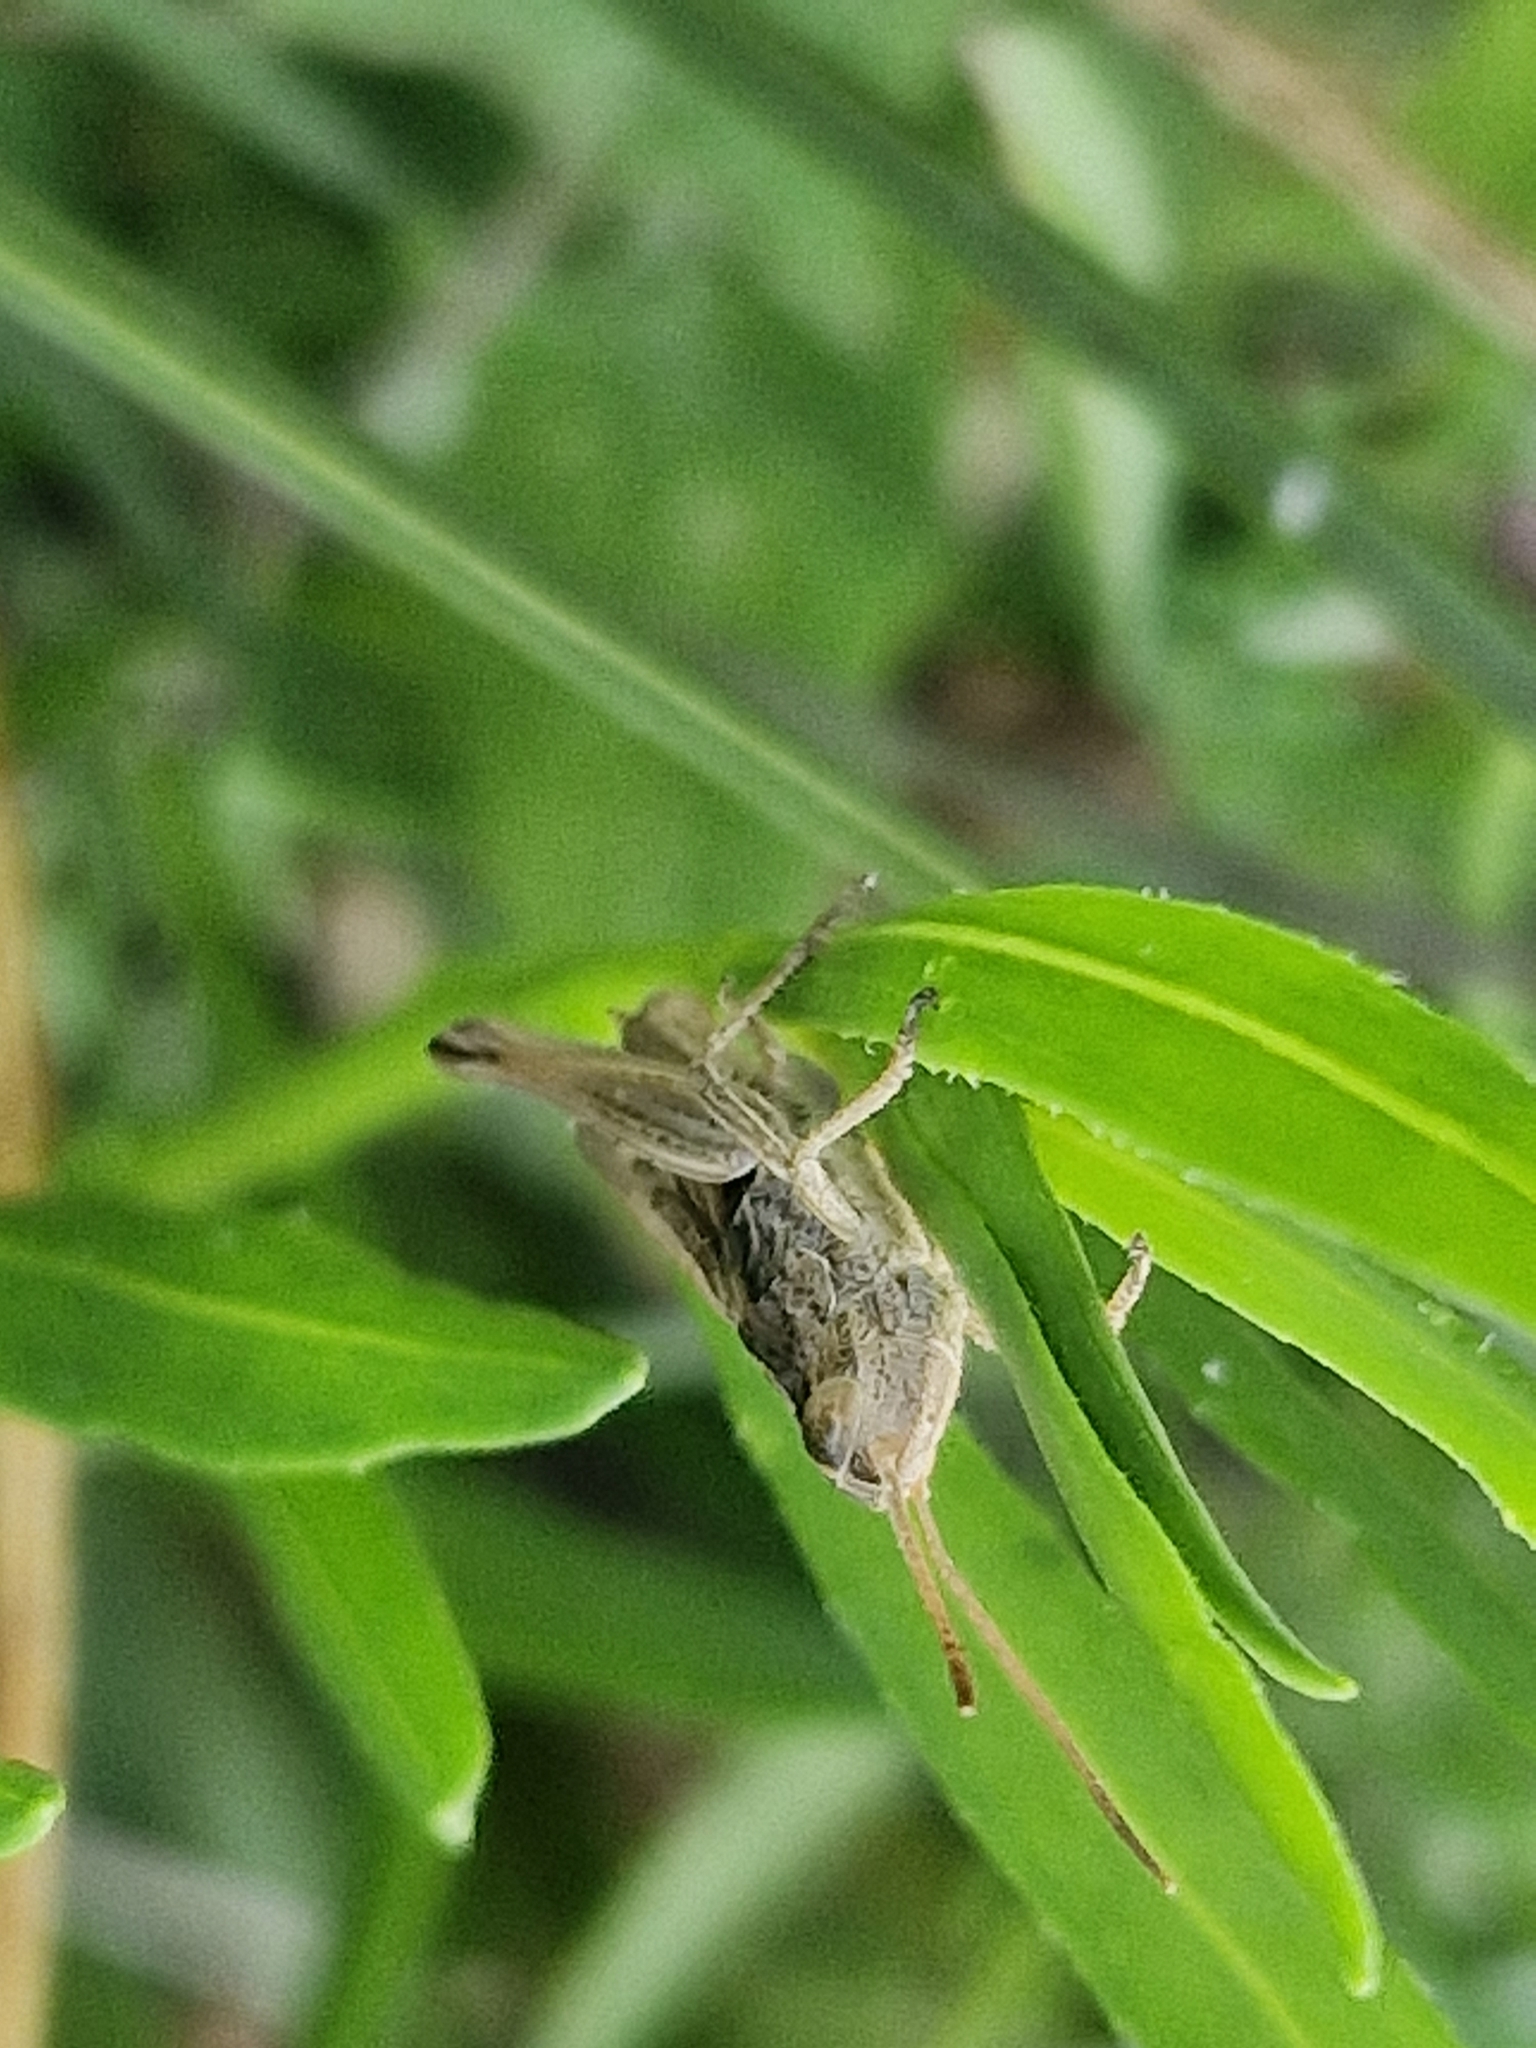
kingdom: Animalia
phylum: Arthropoda
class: Insecta
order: Orthoptera
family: Acrididae
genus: Chorthippus
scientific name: Chorthippus albomarginatus
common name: Lesser marsh grasshopper
